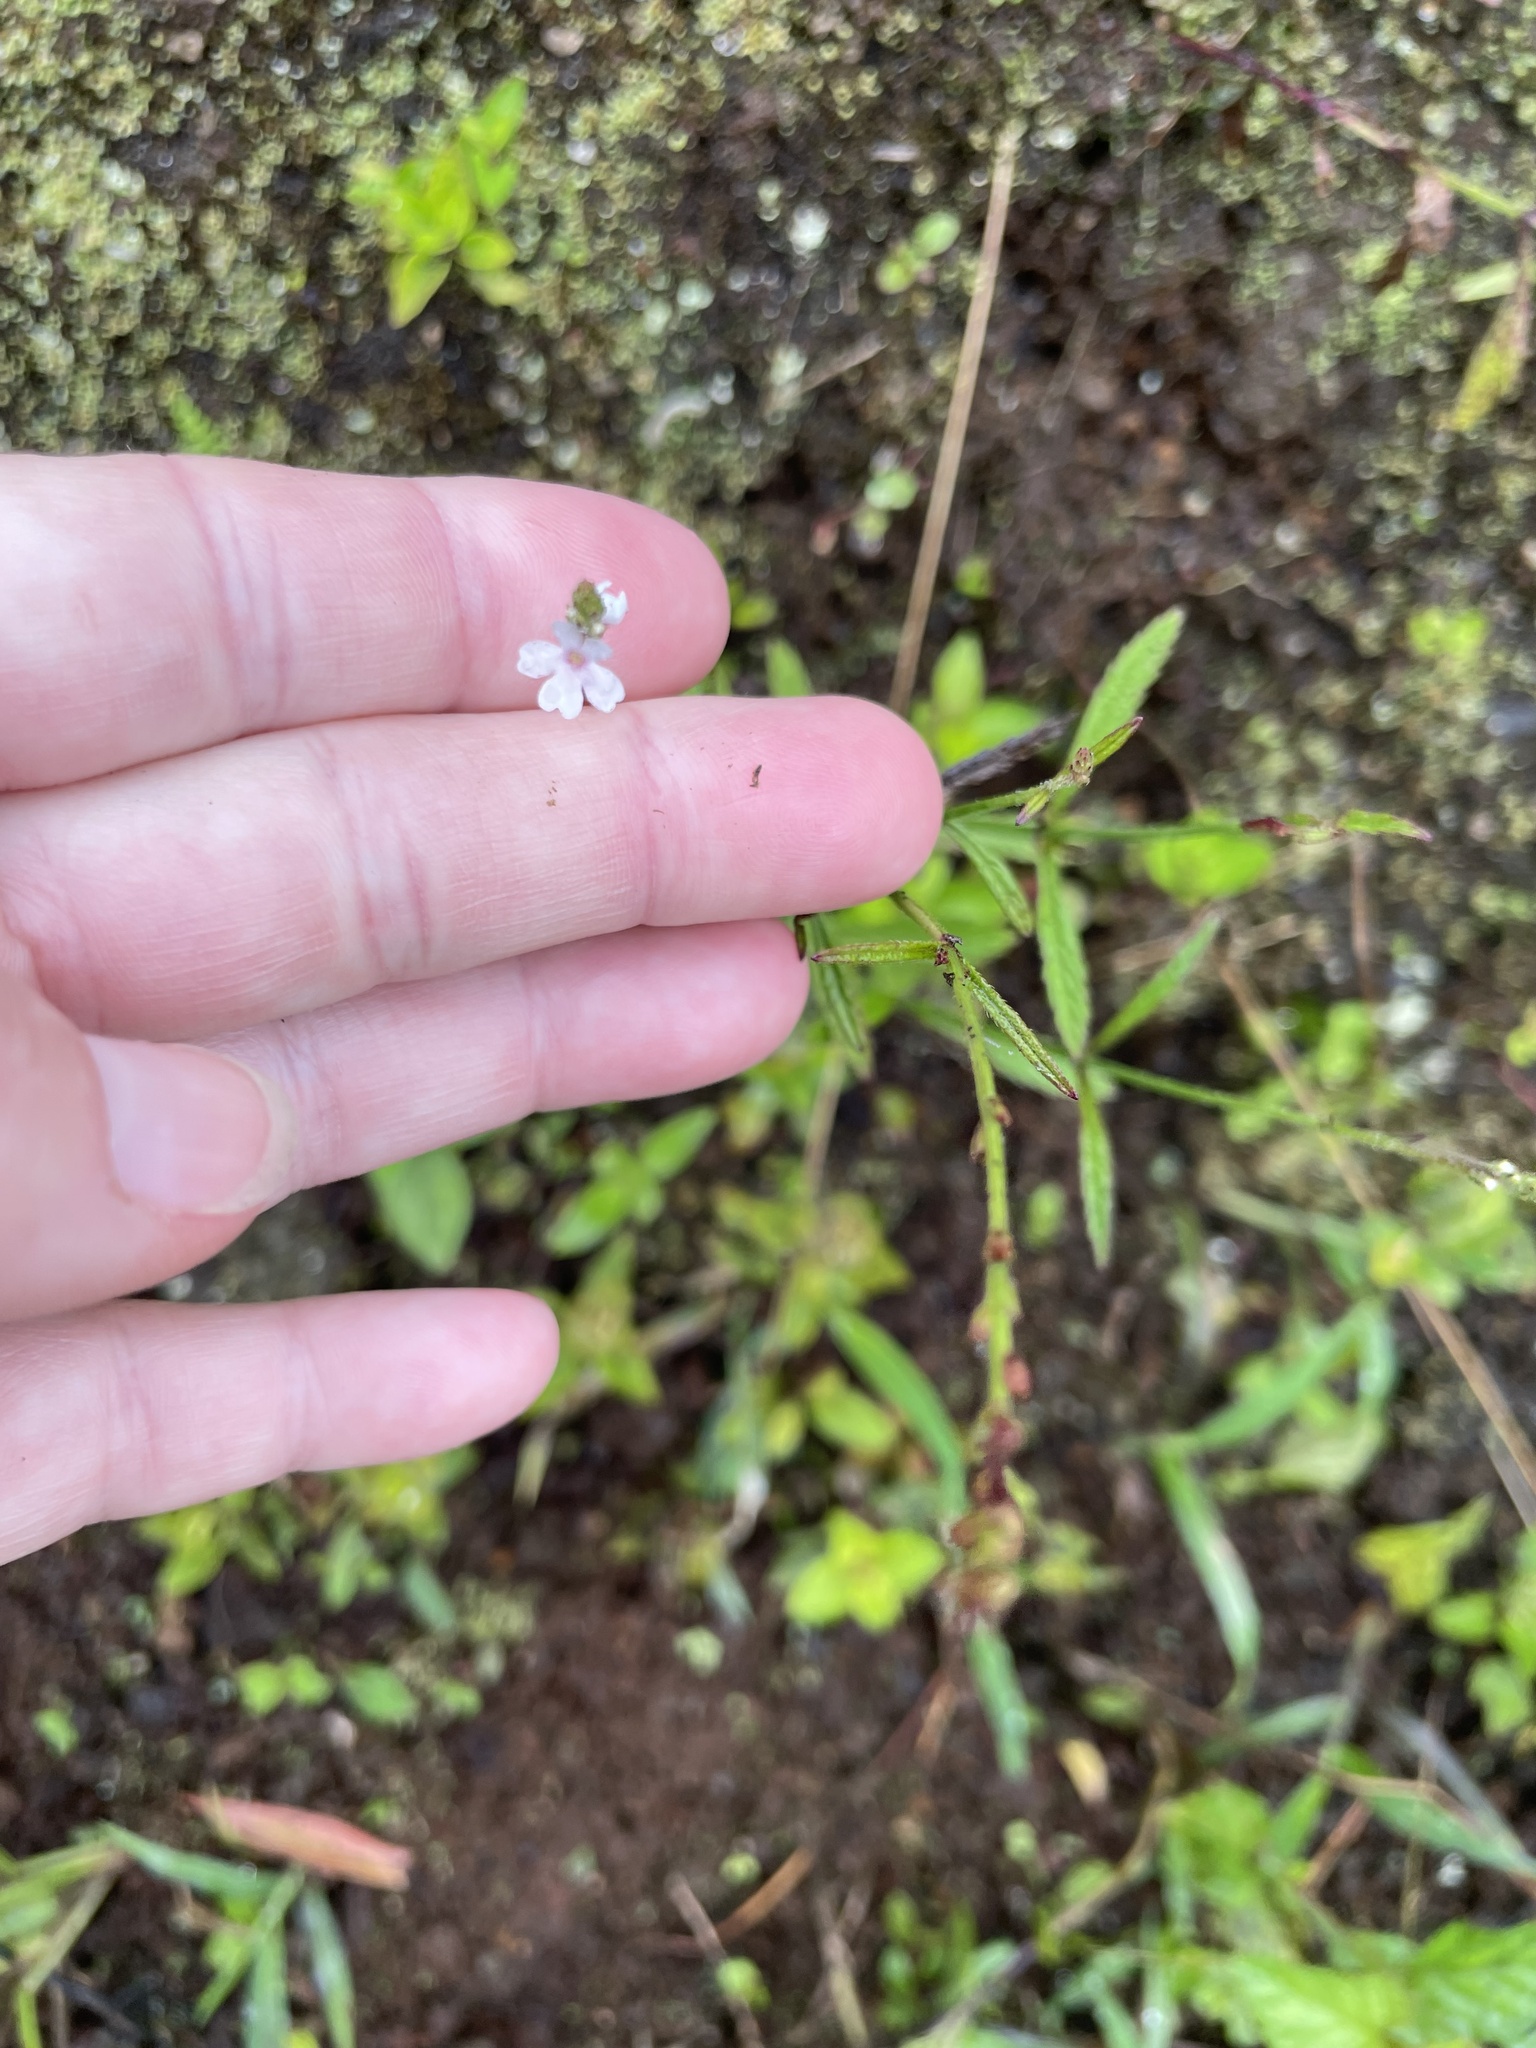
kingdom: Plantae
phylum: Tracheophyta
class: Magnoliopsida
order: Lamiales
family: Verbenaceae
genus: Verbena
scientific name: Verbena litoralis
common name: Seashore vervain
